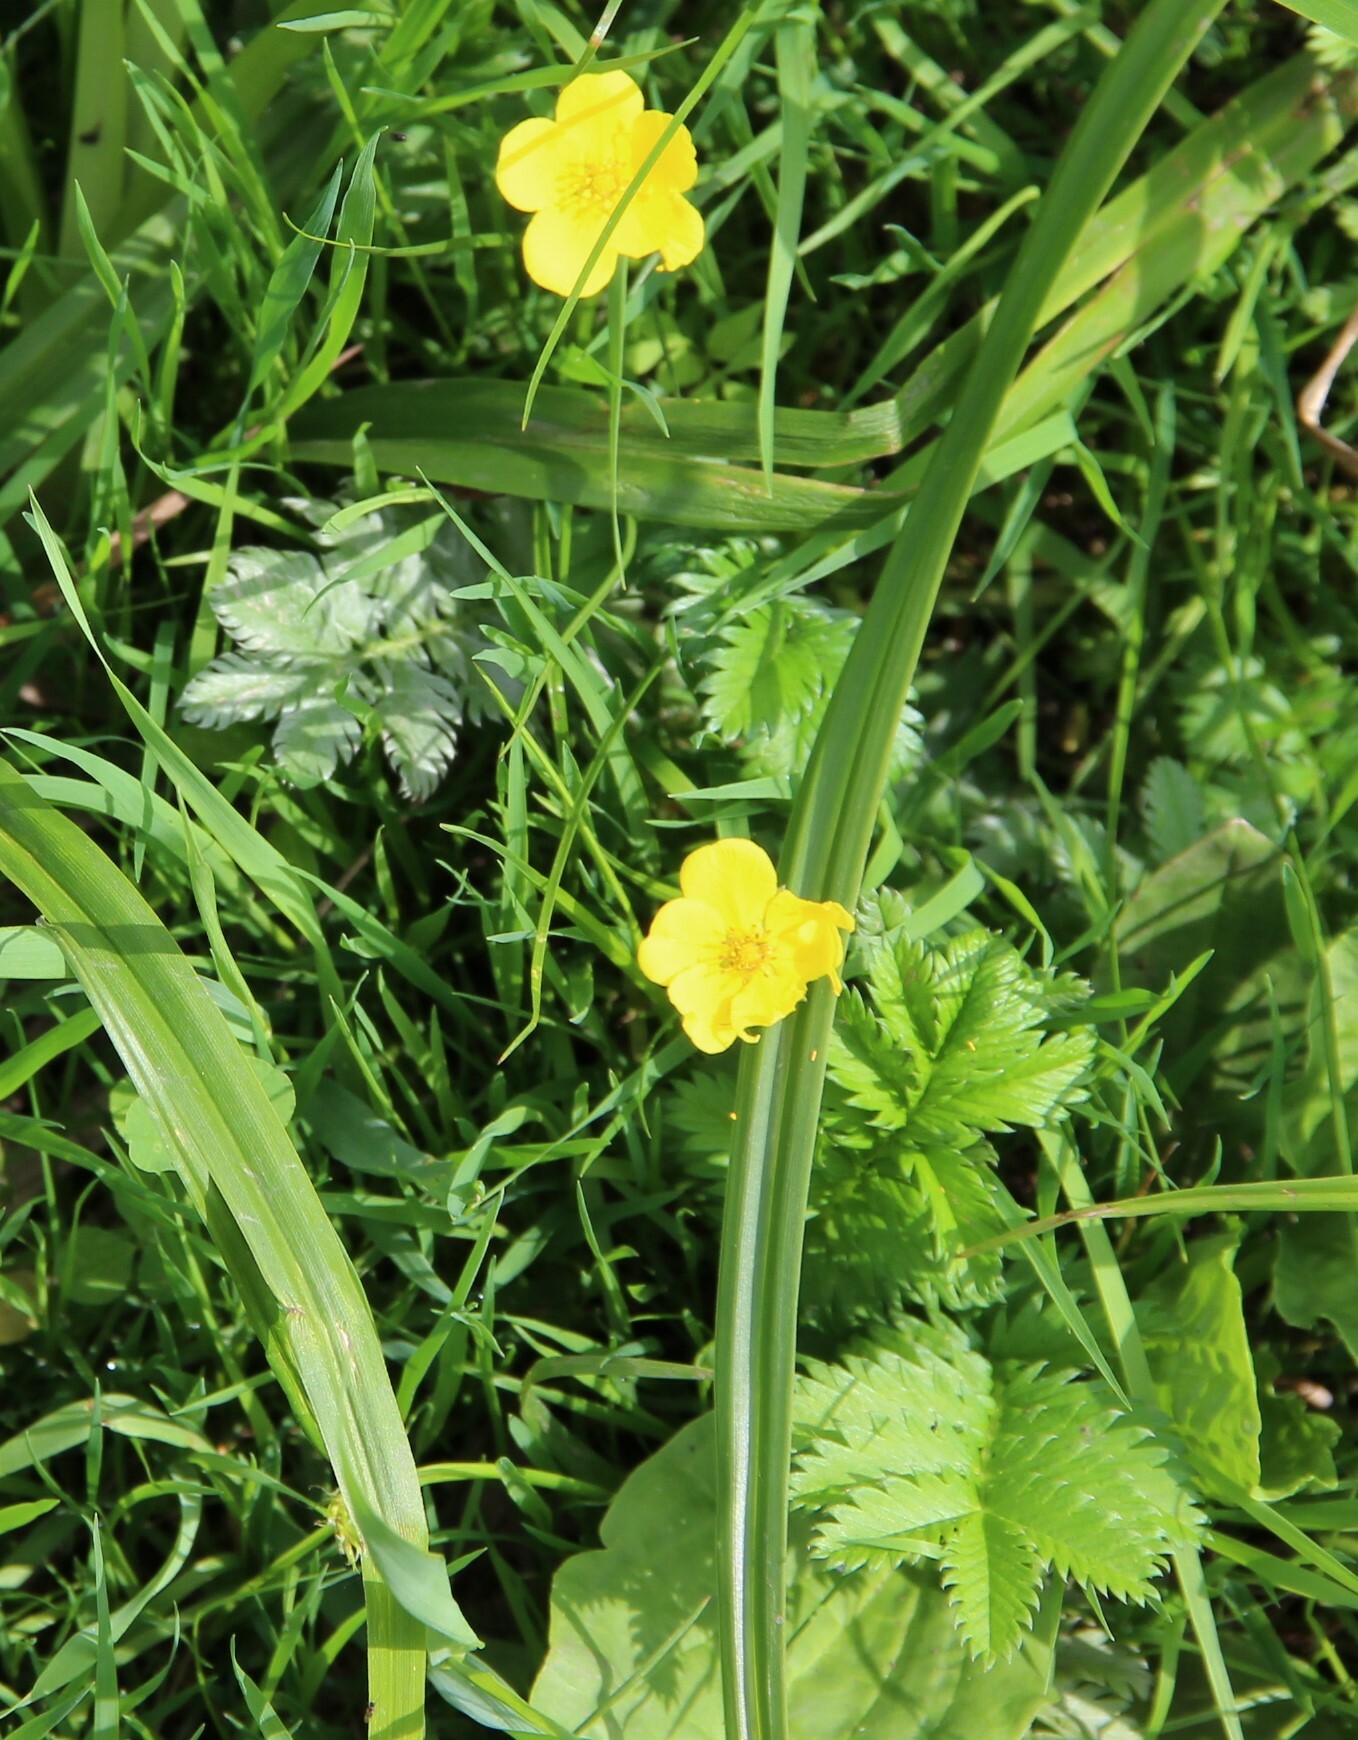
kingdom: Plantae
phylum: Tracheophyta
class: Magnoliopsida
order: Rosales
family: Rosaceae
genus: Argentina
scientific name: Argentina anserina
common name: Common silverweed
